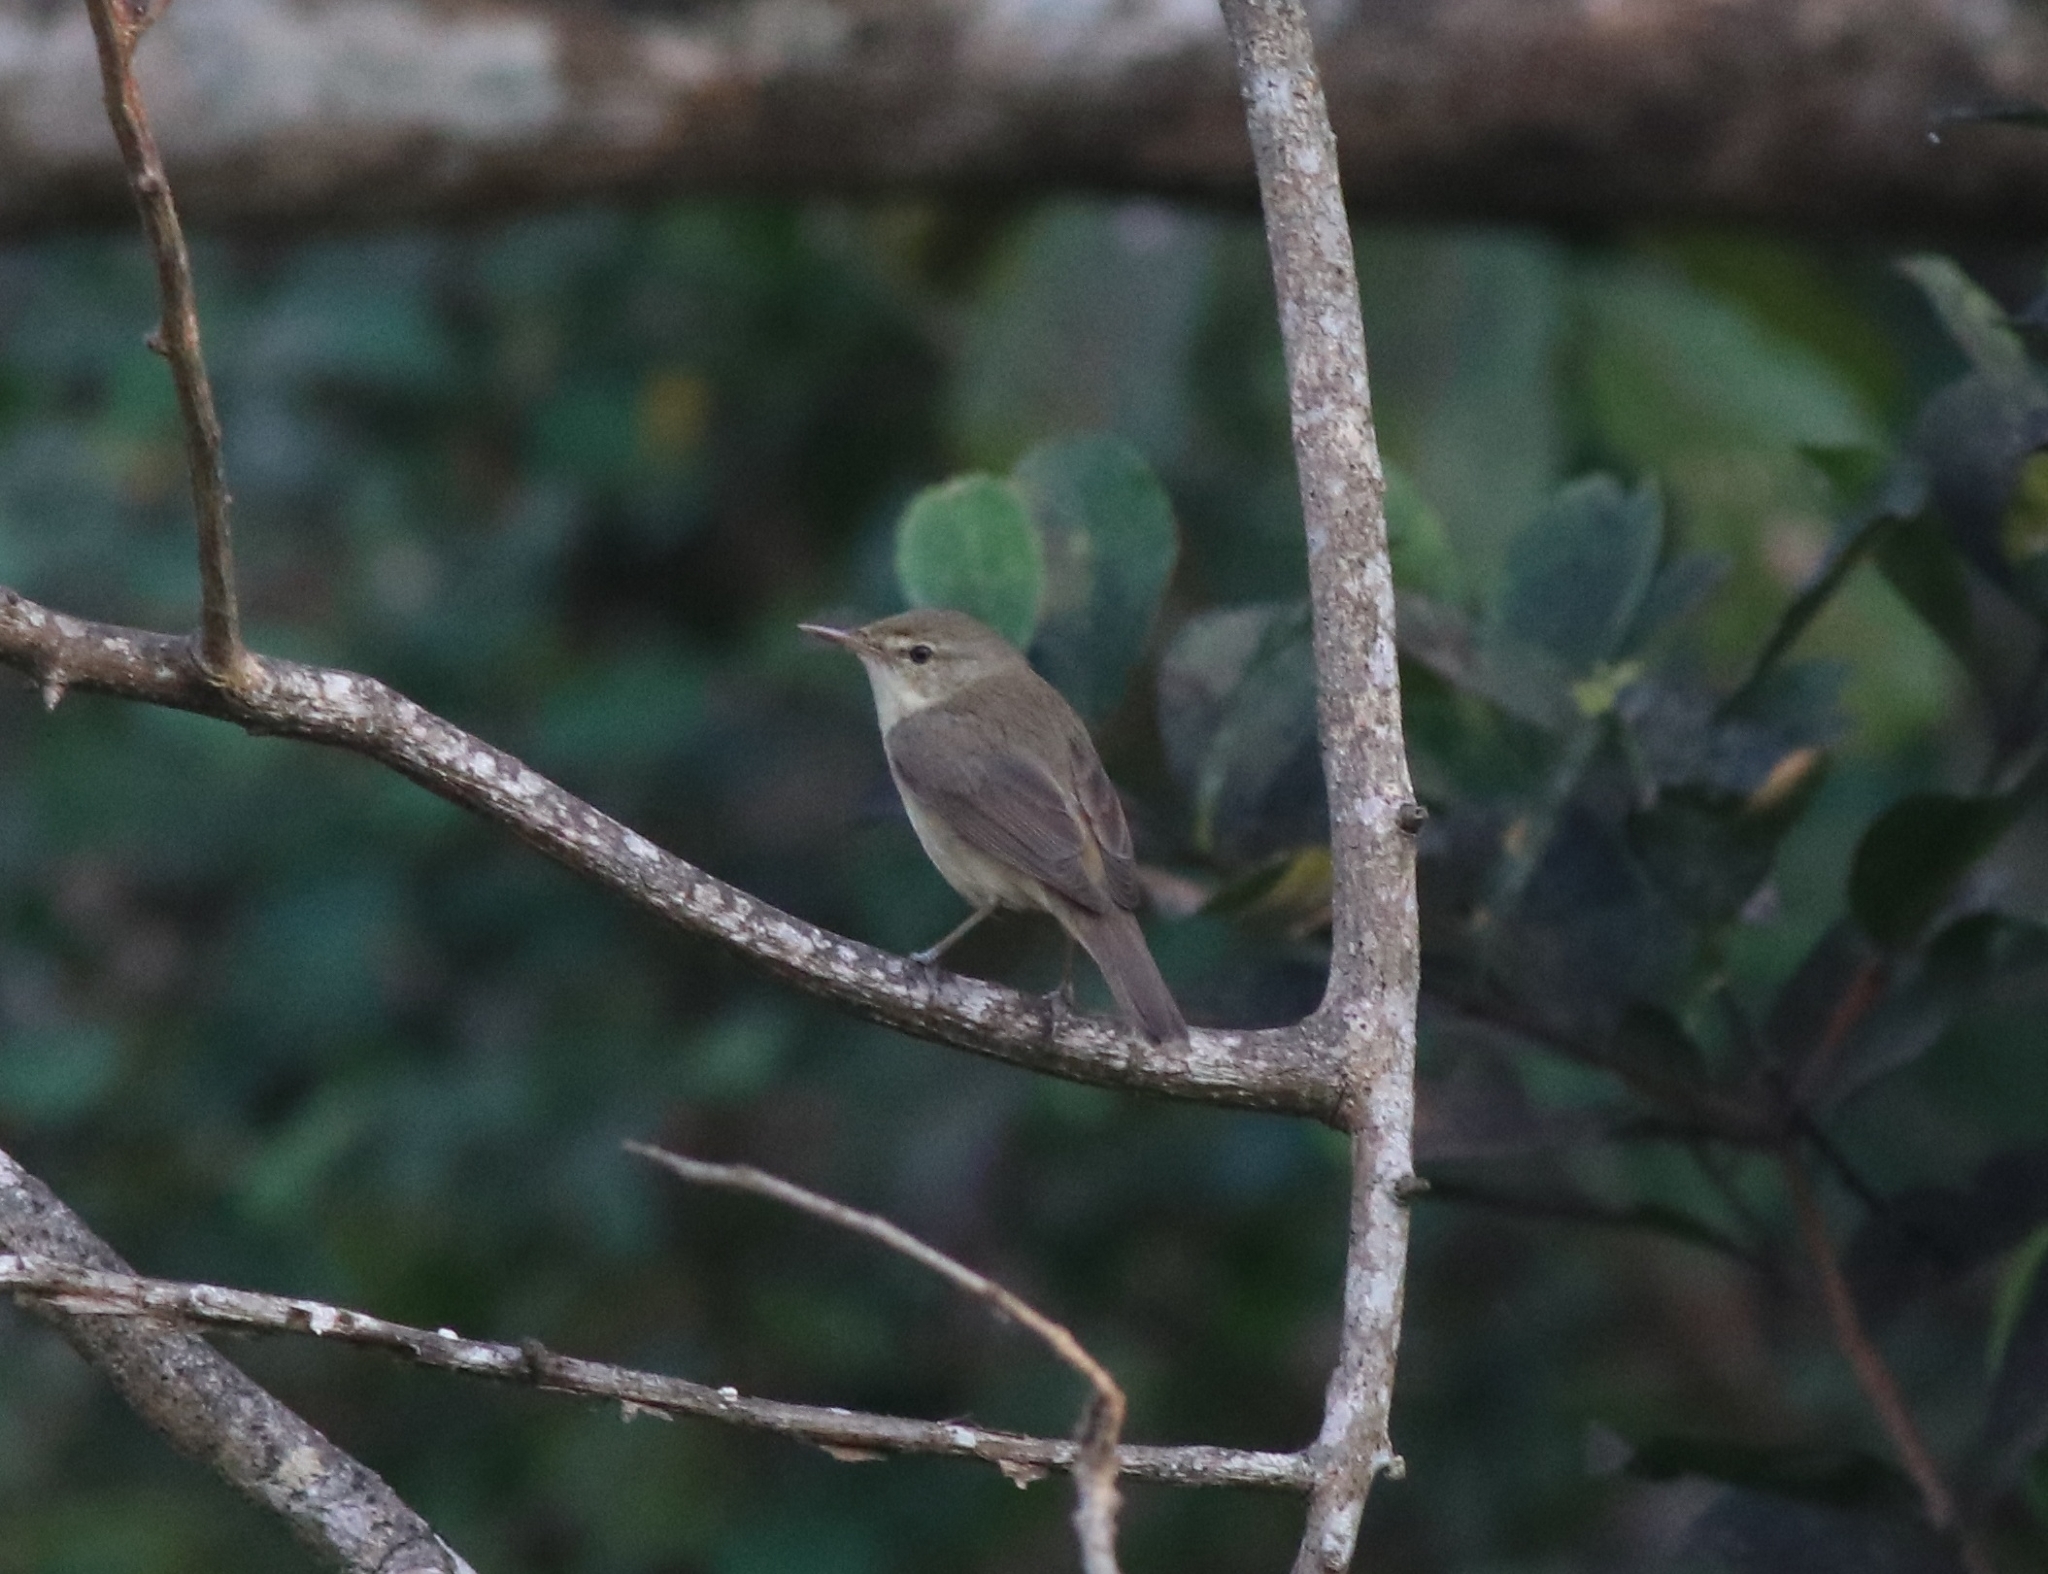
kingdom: Animalia
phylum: Chordata
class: Aves
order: Passeriformes
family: Acrocephalidae
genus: Acrocephalus
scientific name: Acrocephalus dumetorum
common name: Blyth's reed warbler
